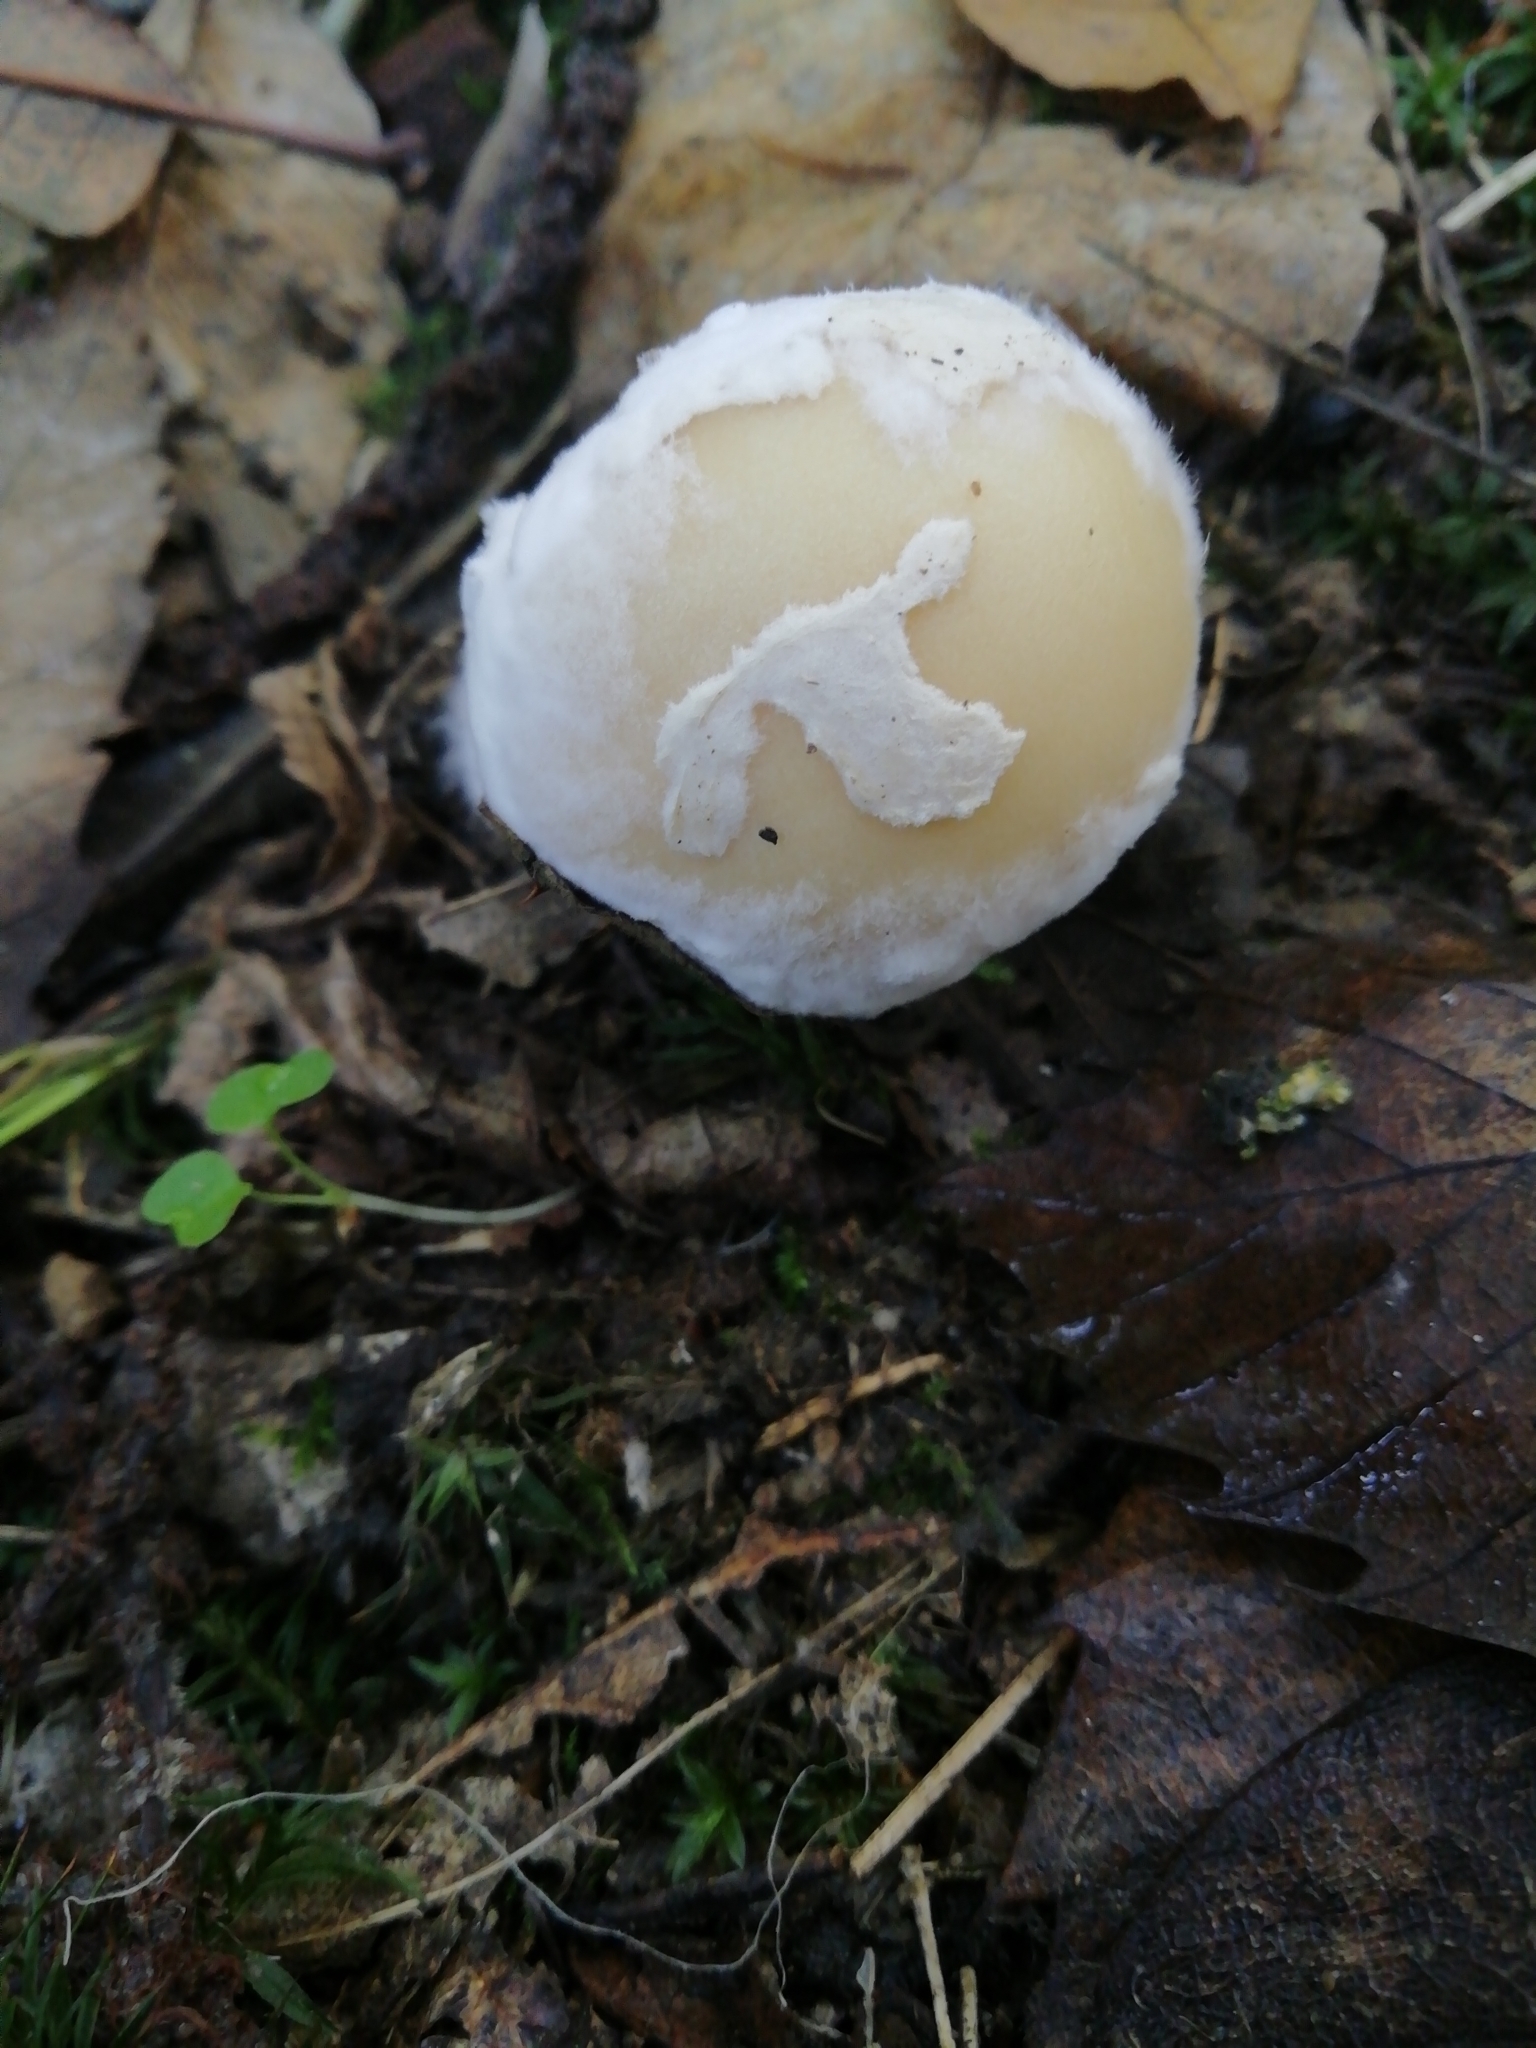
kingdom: Fungi
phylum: Basidiomycota
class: Agaricomycetes
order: Agaricales
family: Amanitaceae
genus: Amanita
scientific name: Amanita gemmata
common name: Jewelled amanita
